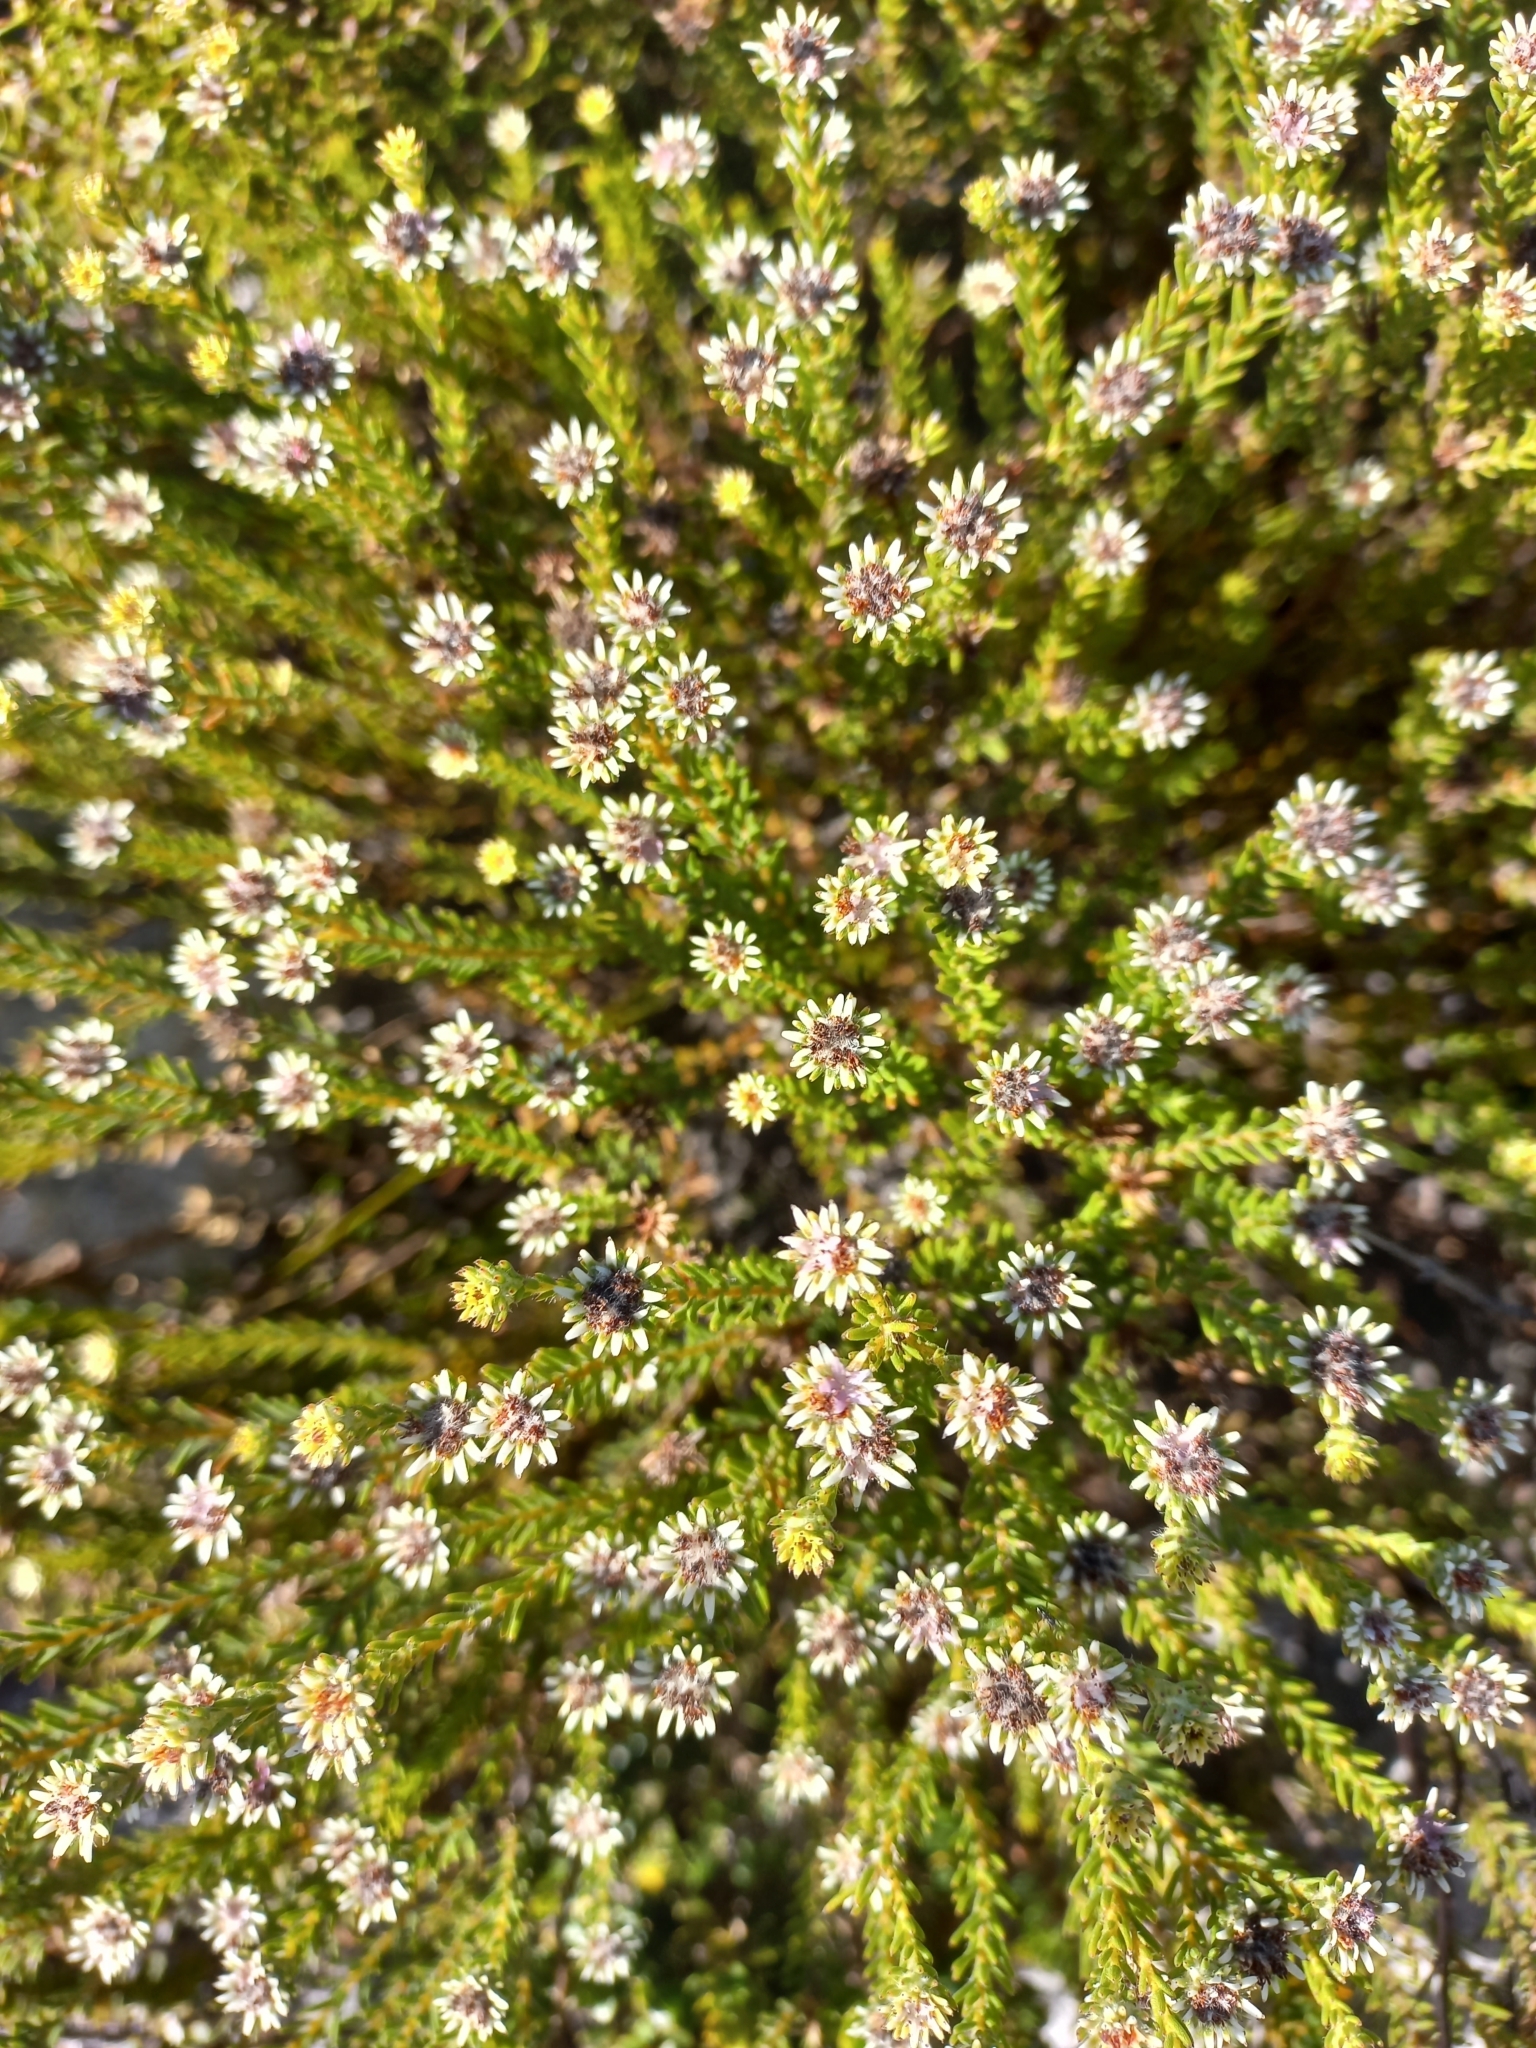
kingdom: Plantae
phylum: Tracheophyta
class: Magnoliopsida
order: Bruniales
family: Bruniaceae
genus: Staavia
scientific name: Staavia radiata
